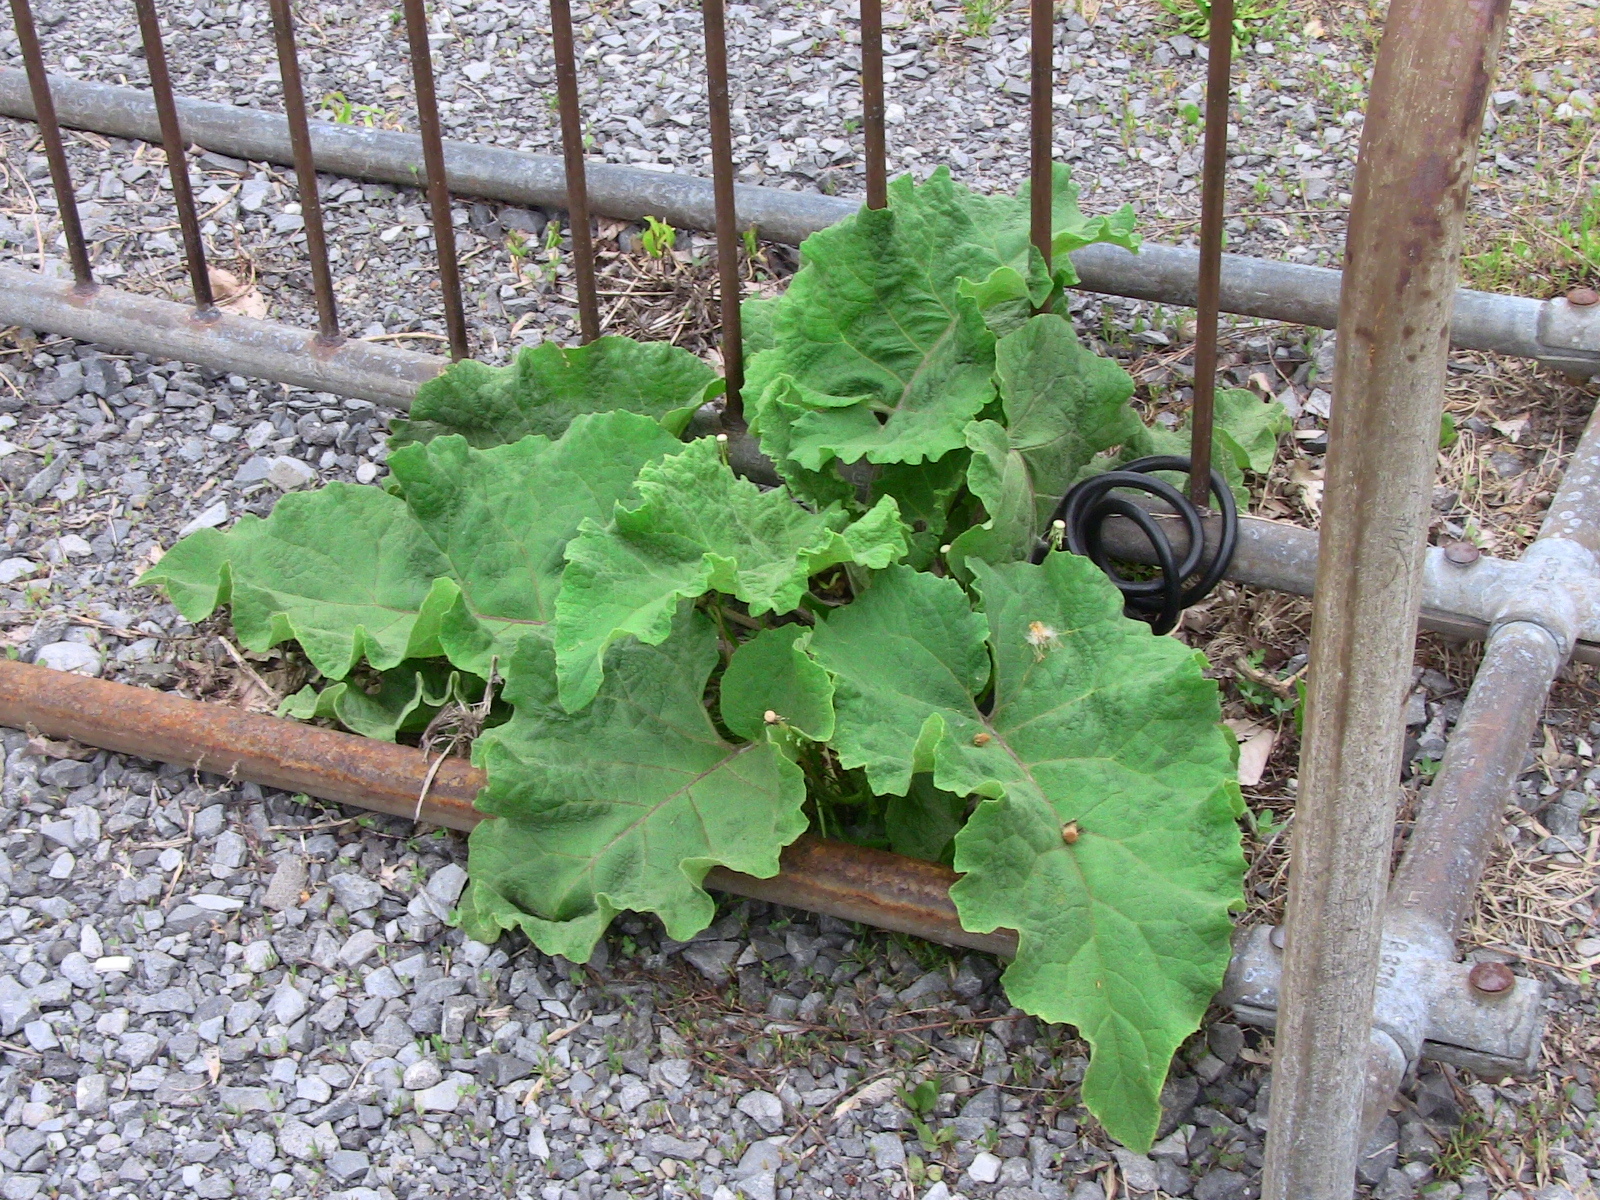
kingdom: Plantae
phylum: Tracheophyta
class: Magnoliopsida
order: Asterales
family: Asteraceae
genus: Arctium
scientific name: Arctium lappa
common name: Greater burdock
